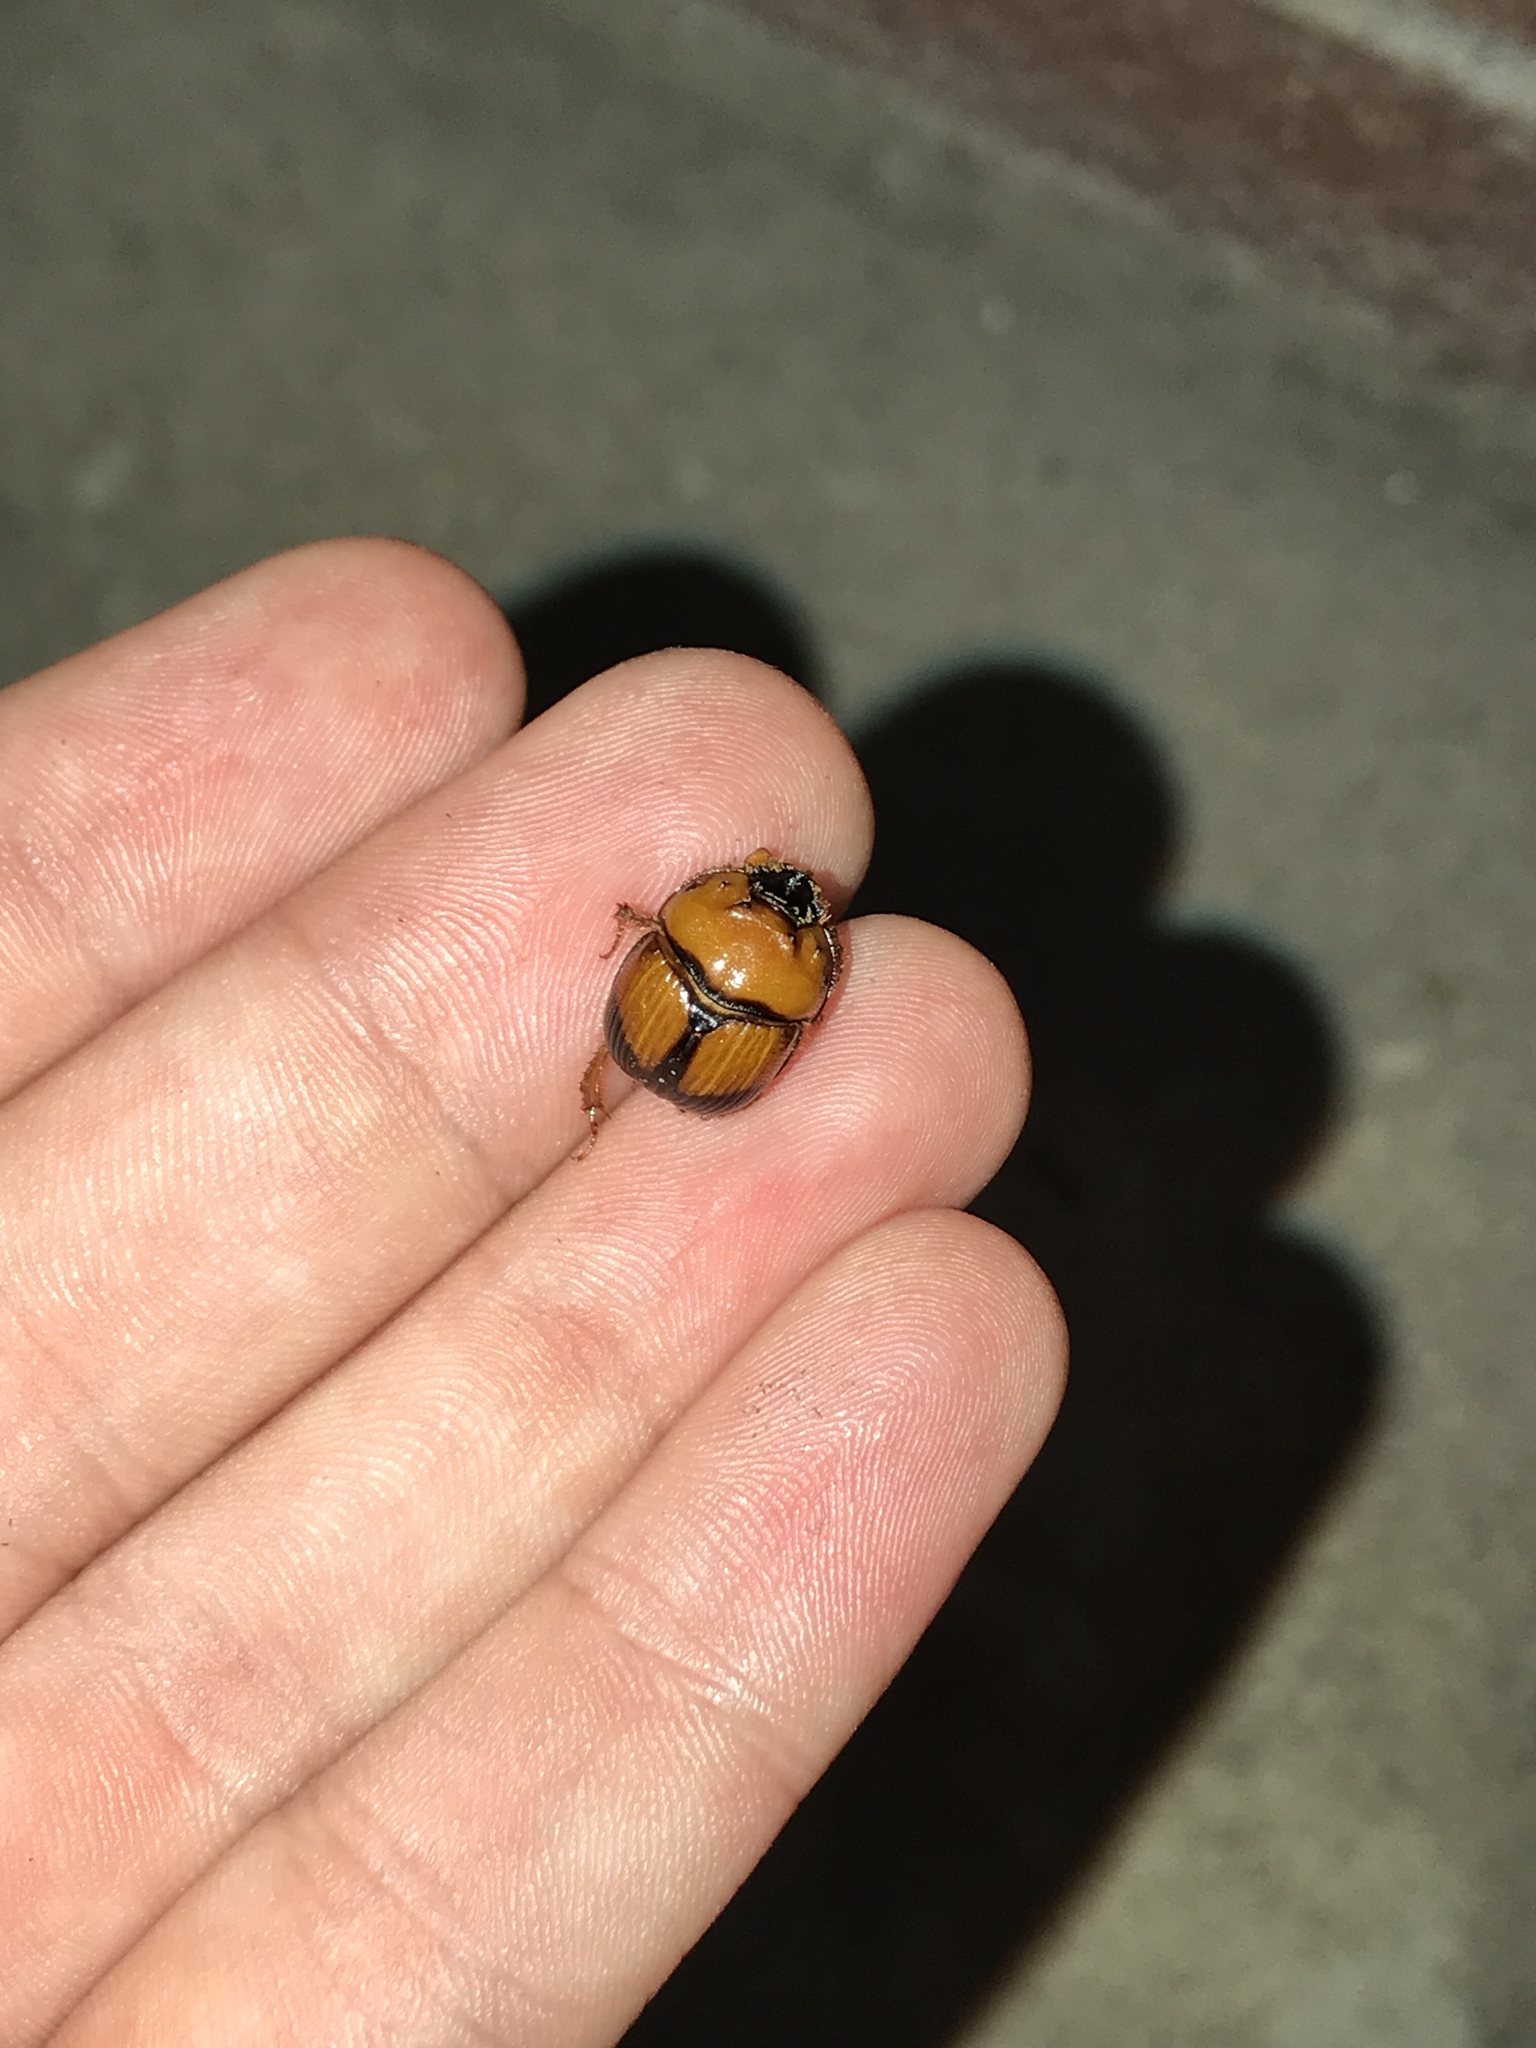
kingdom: Animalia
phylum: Arthropoda
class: Insecta
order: Coleoptera
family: Geotrupidae
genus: Bolbocerosoma
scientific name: Bolbocerosoma bruneri
